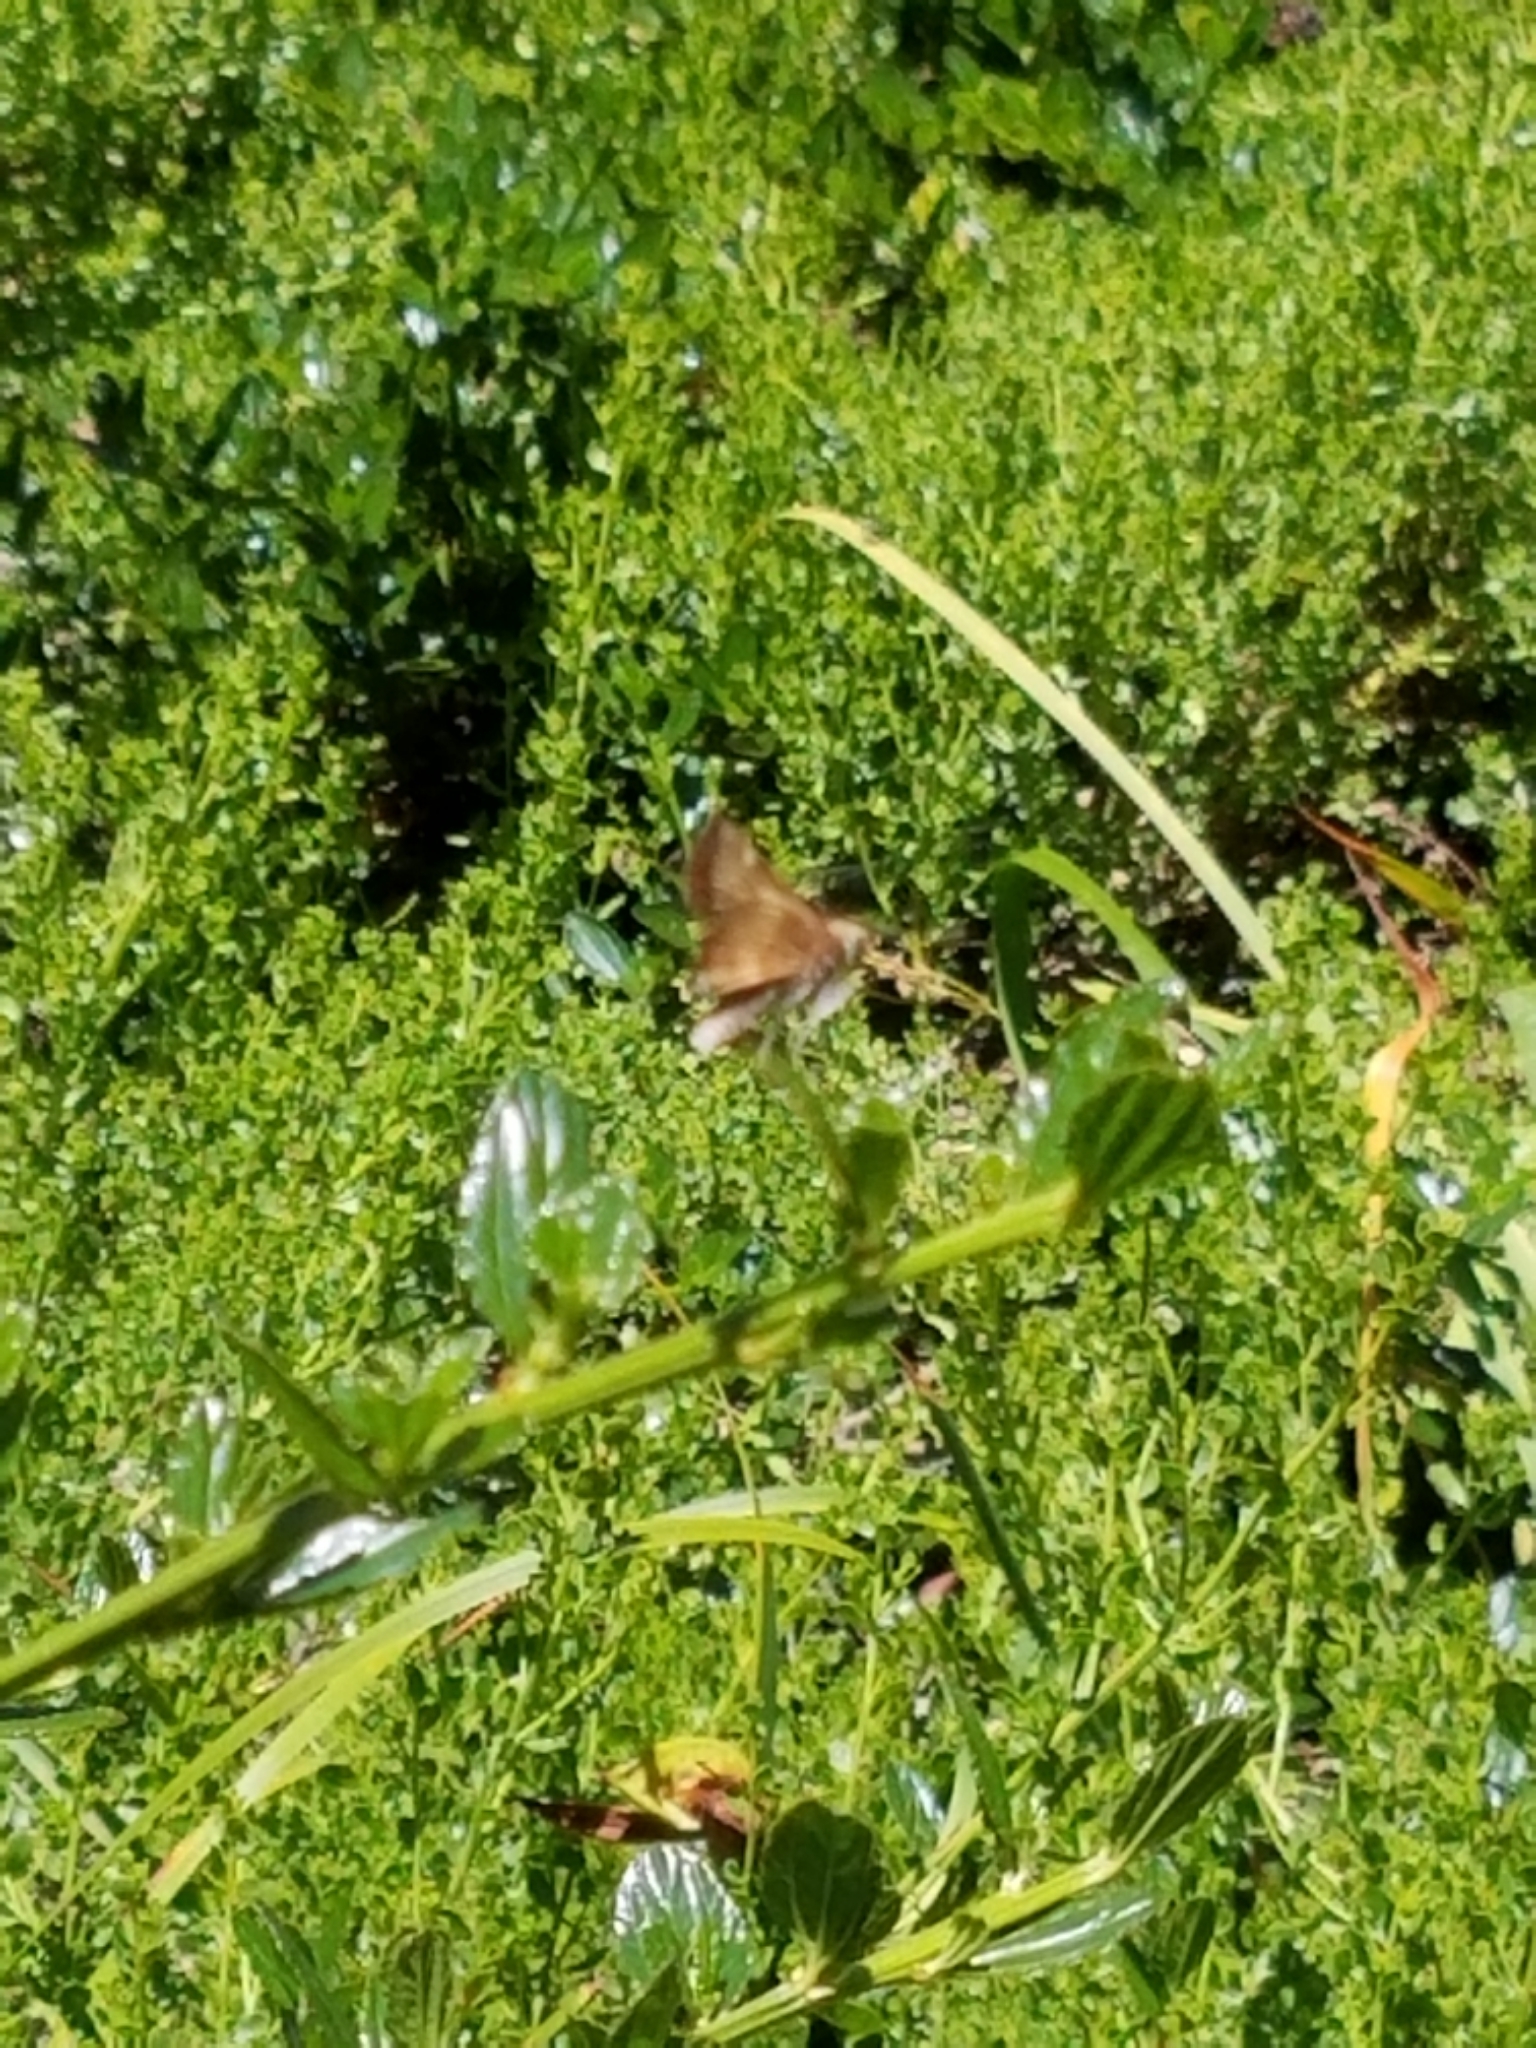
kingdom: Animalia
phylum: Arthropoda
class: Insecta
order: Lepidoptera
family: Hesperiidae
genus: Lon
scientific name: Lon melane
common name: Umber skipper
